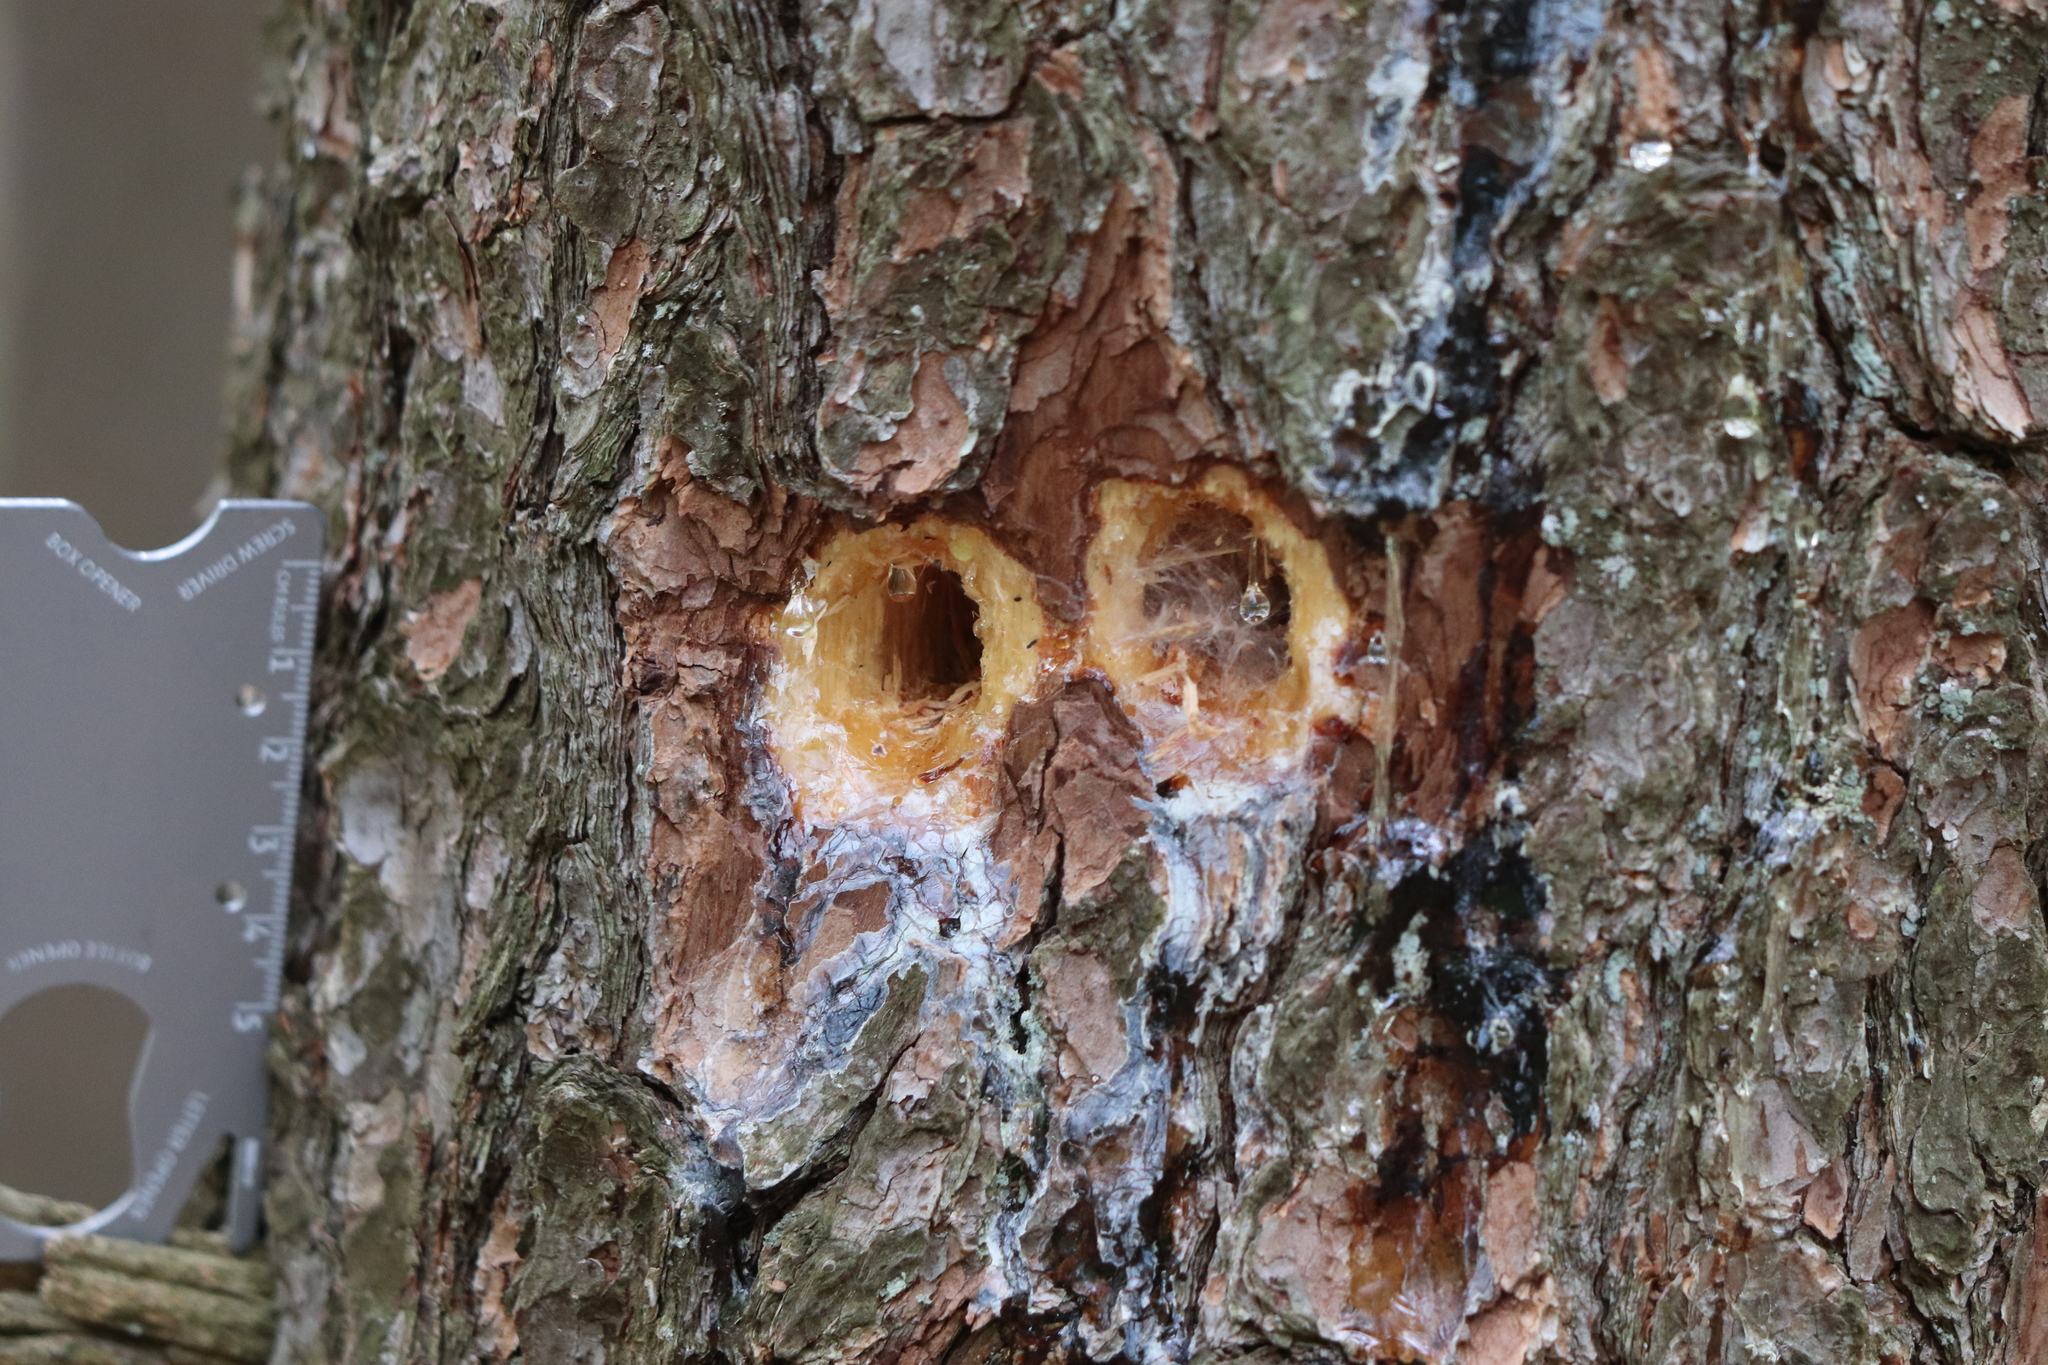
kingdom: Animalia
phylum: Chordata
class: Aves
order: Piciformes
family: Picidae
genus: Dryocopus
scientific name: Dryocopus pileatus
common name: Pileated woodpecker
